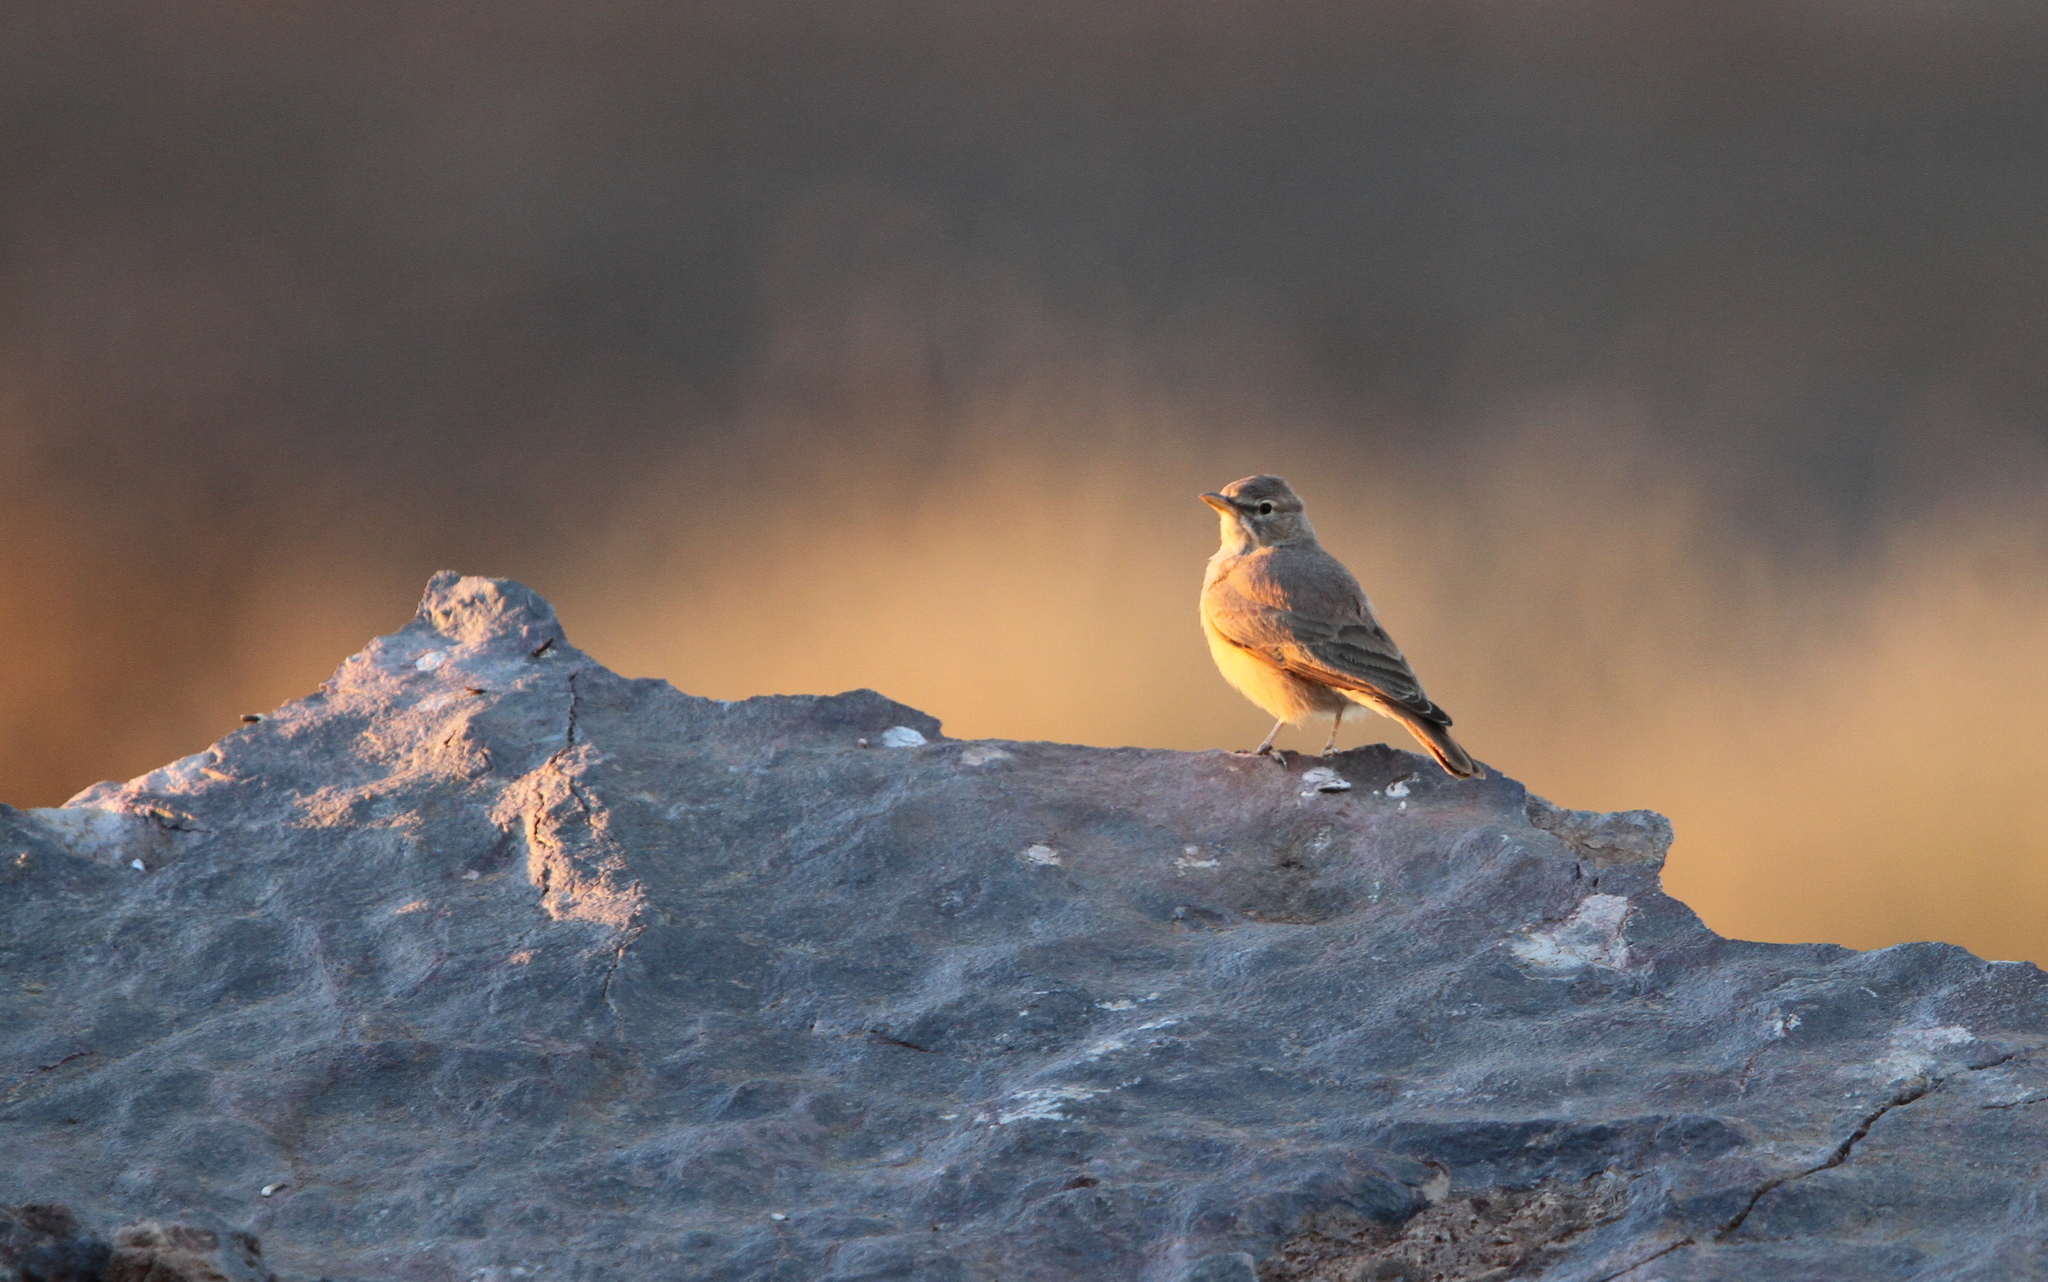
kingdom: Animalia
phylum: Chordata
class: Aves
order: Passeriformes
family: Alaudidae
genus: Ammomanes
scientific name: Ammomanes deserti
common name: Desert lark
